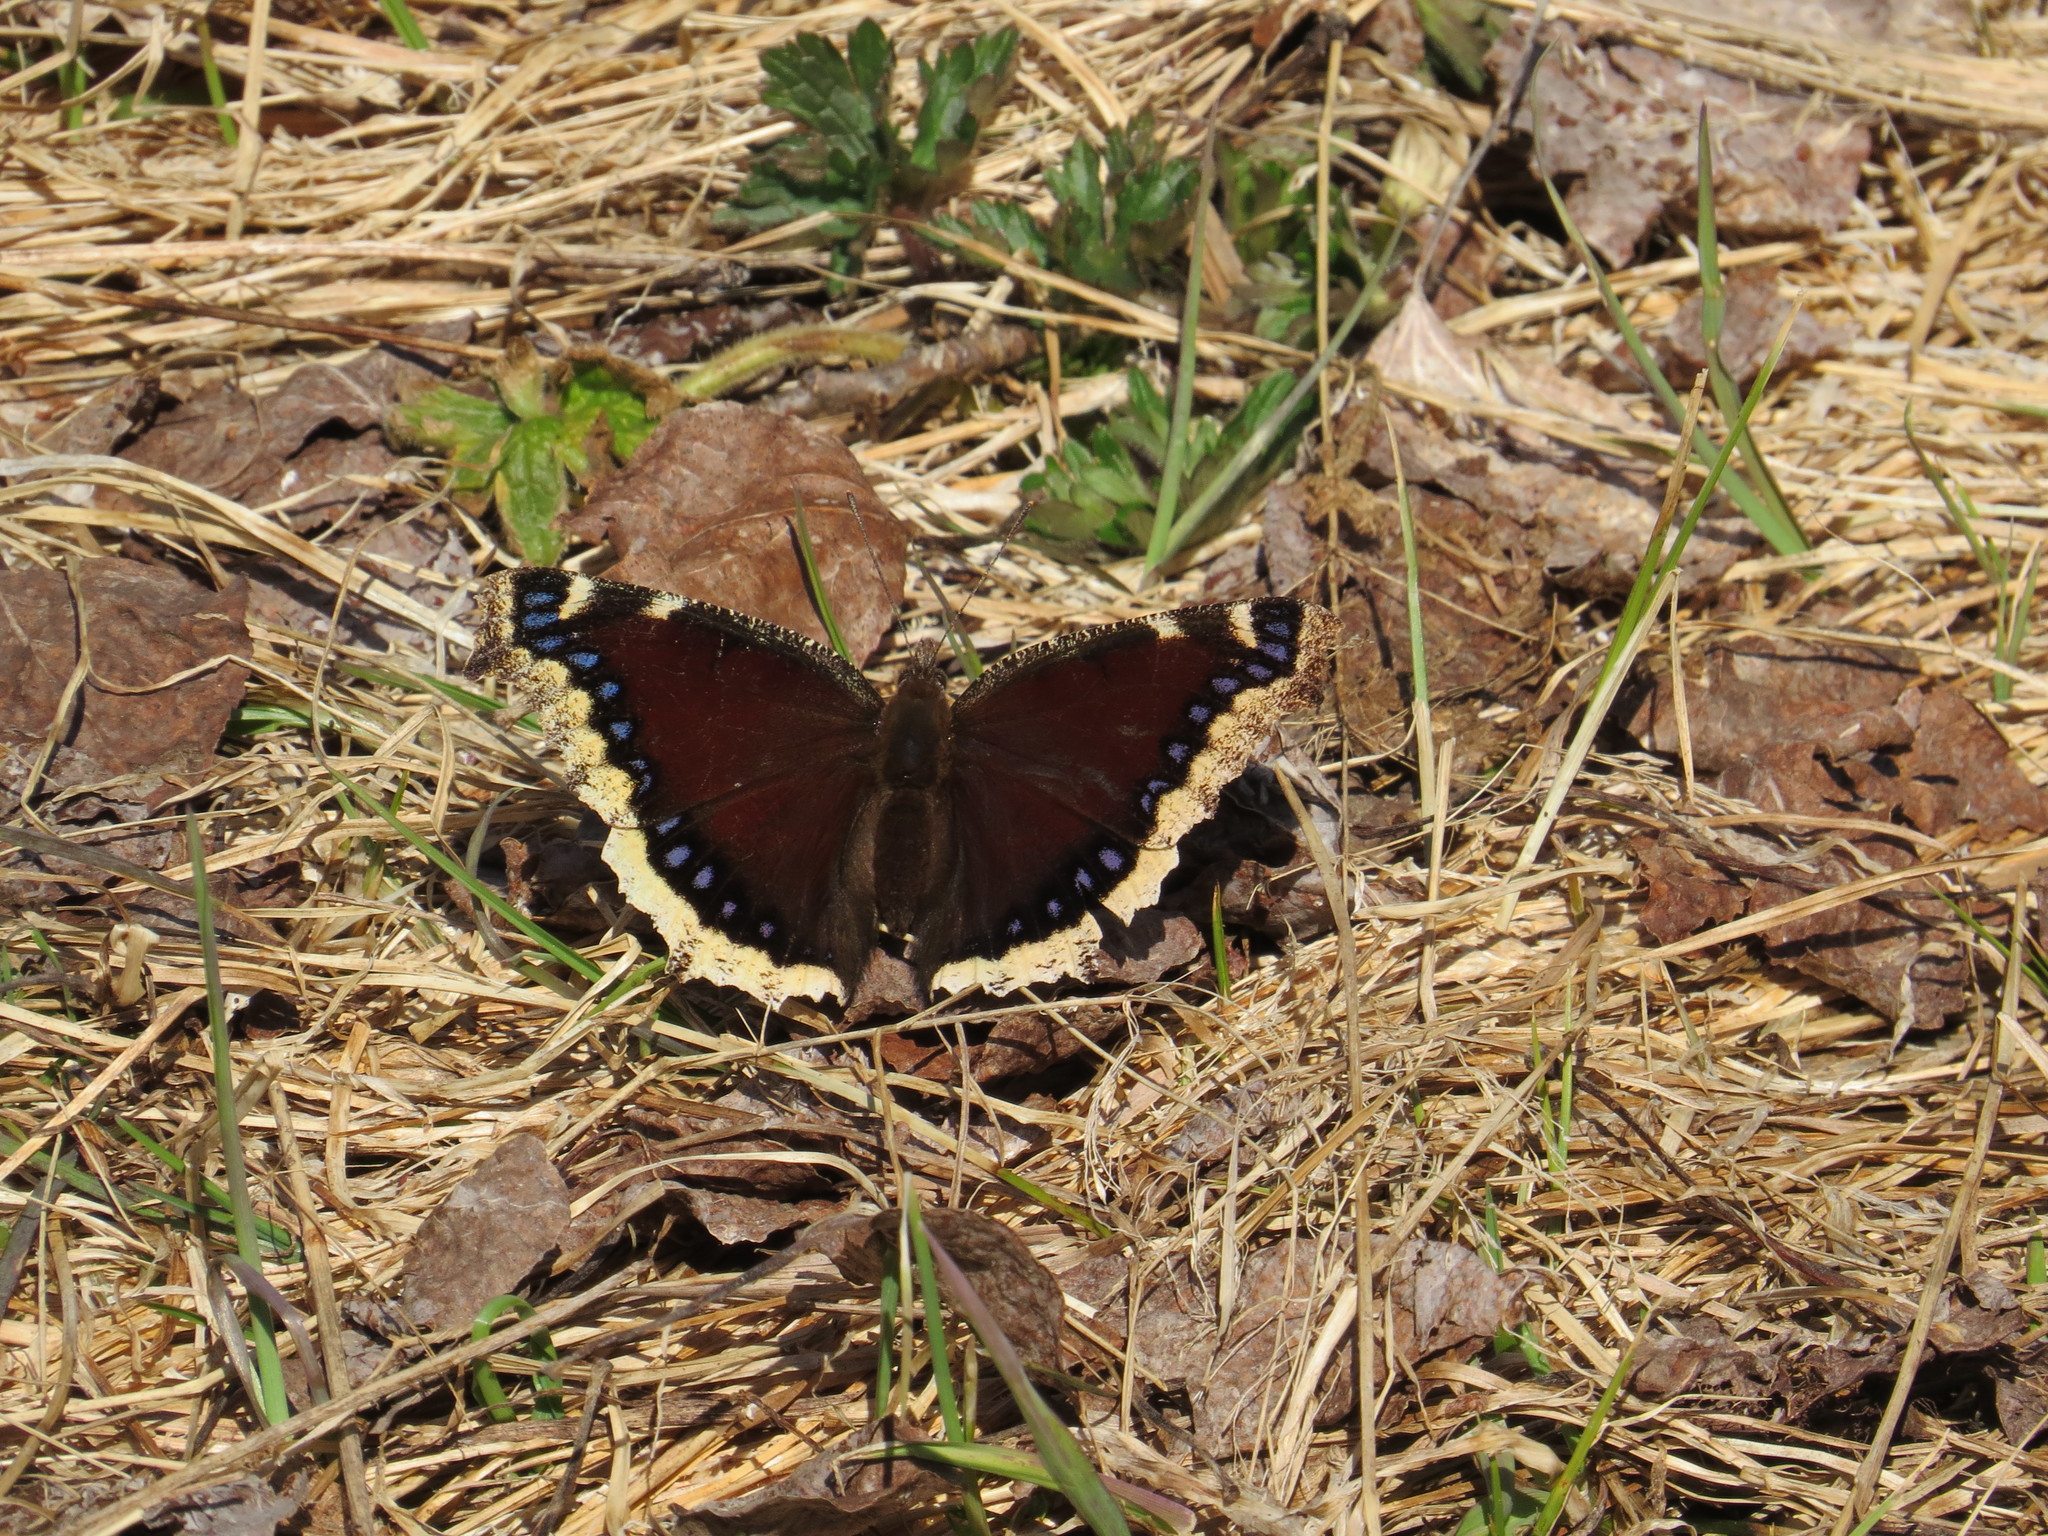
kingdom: Animalia
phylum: Arthropoda
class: Insecta
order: Lepidoptera
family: Nymphalidae
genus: Nymphalis
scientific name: Nymphalis antiopa
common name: Camberwell beauty
